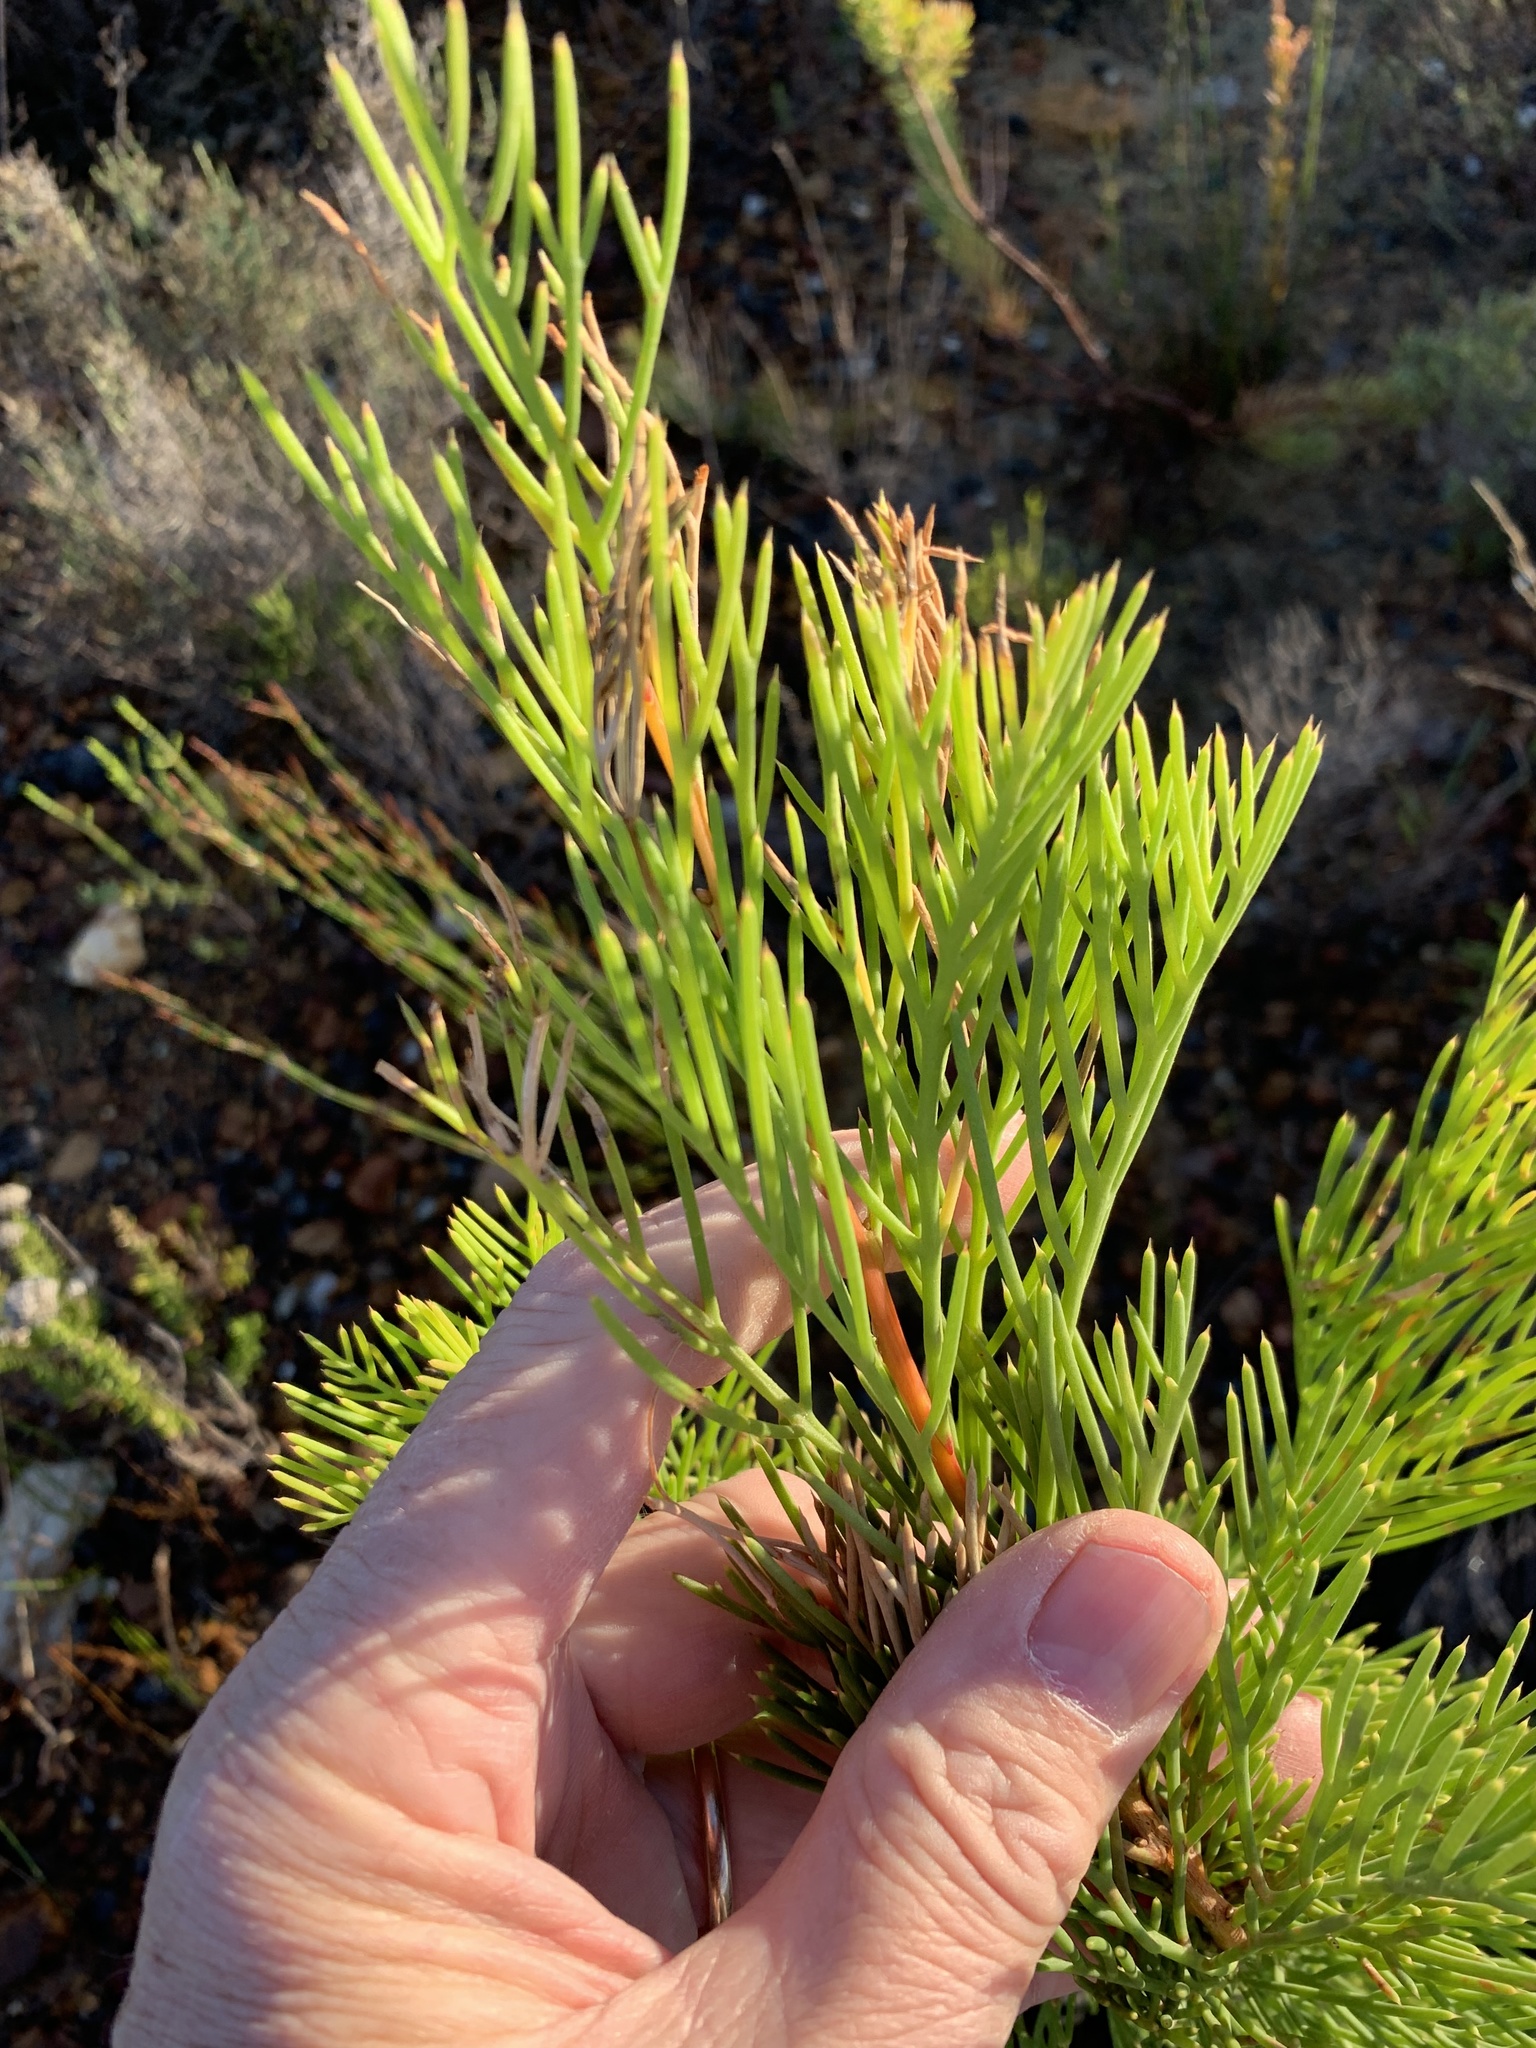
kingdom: Plantae
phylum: Tracheophyta
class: Magnoliopsida
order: Proteales
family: Proteaceae
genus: Hakea
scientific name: Hakea drupacea
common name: Sweet hakea
